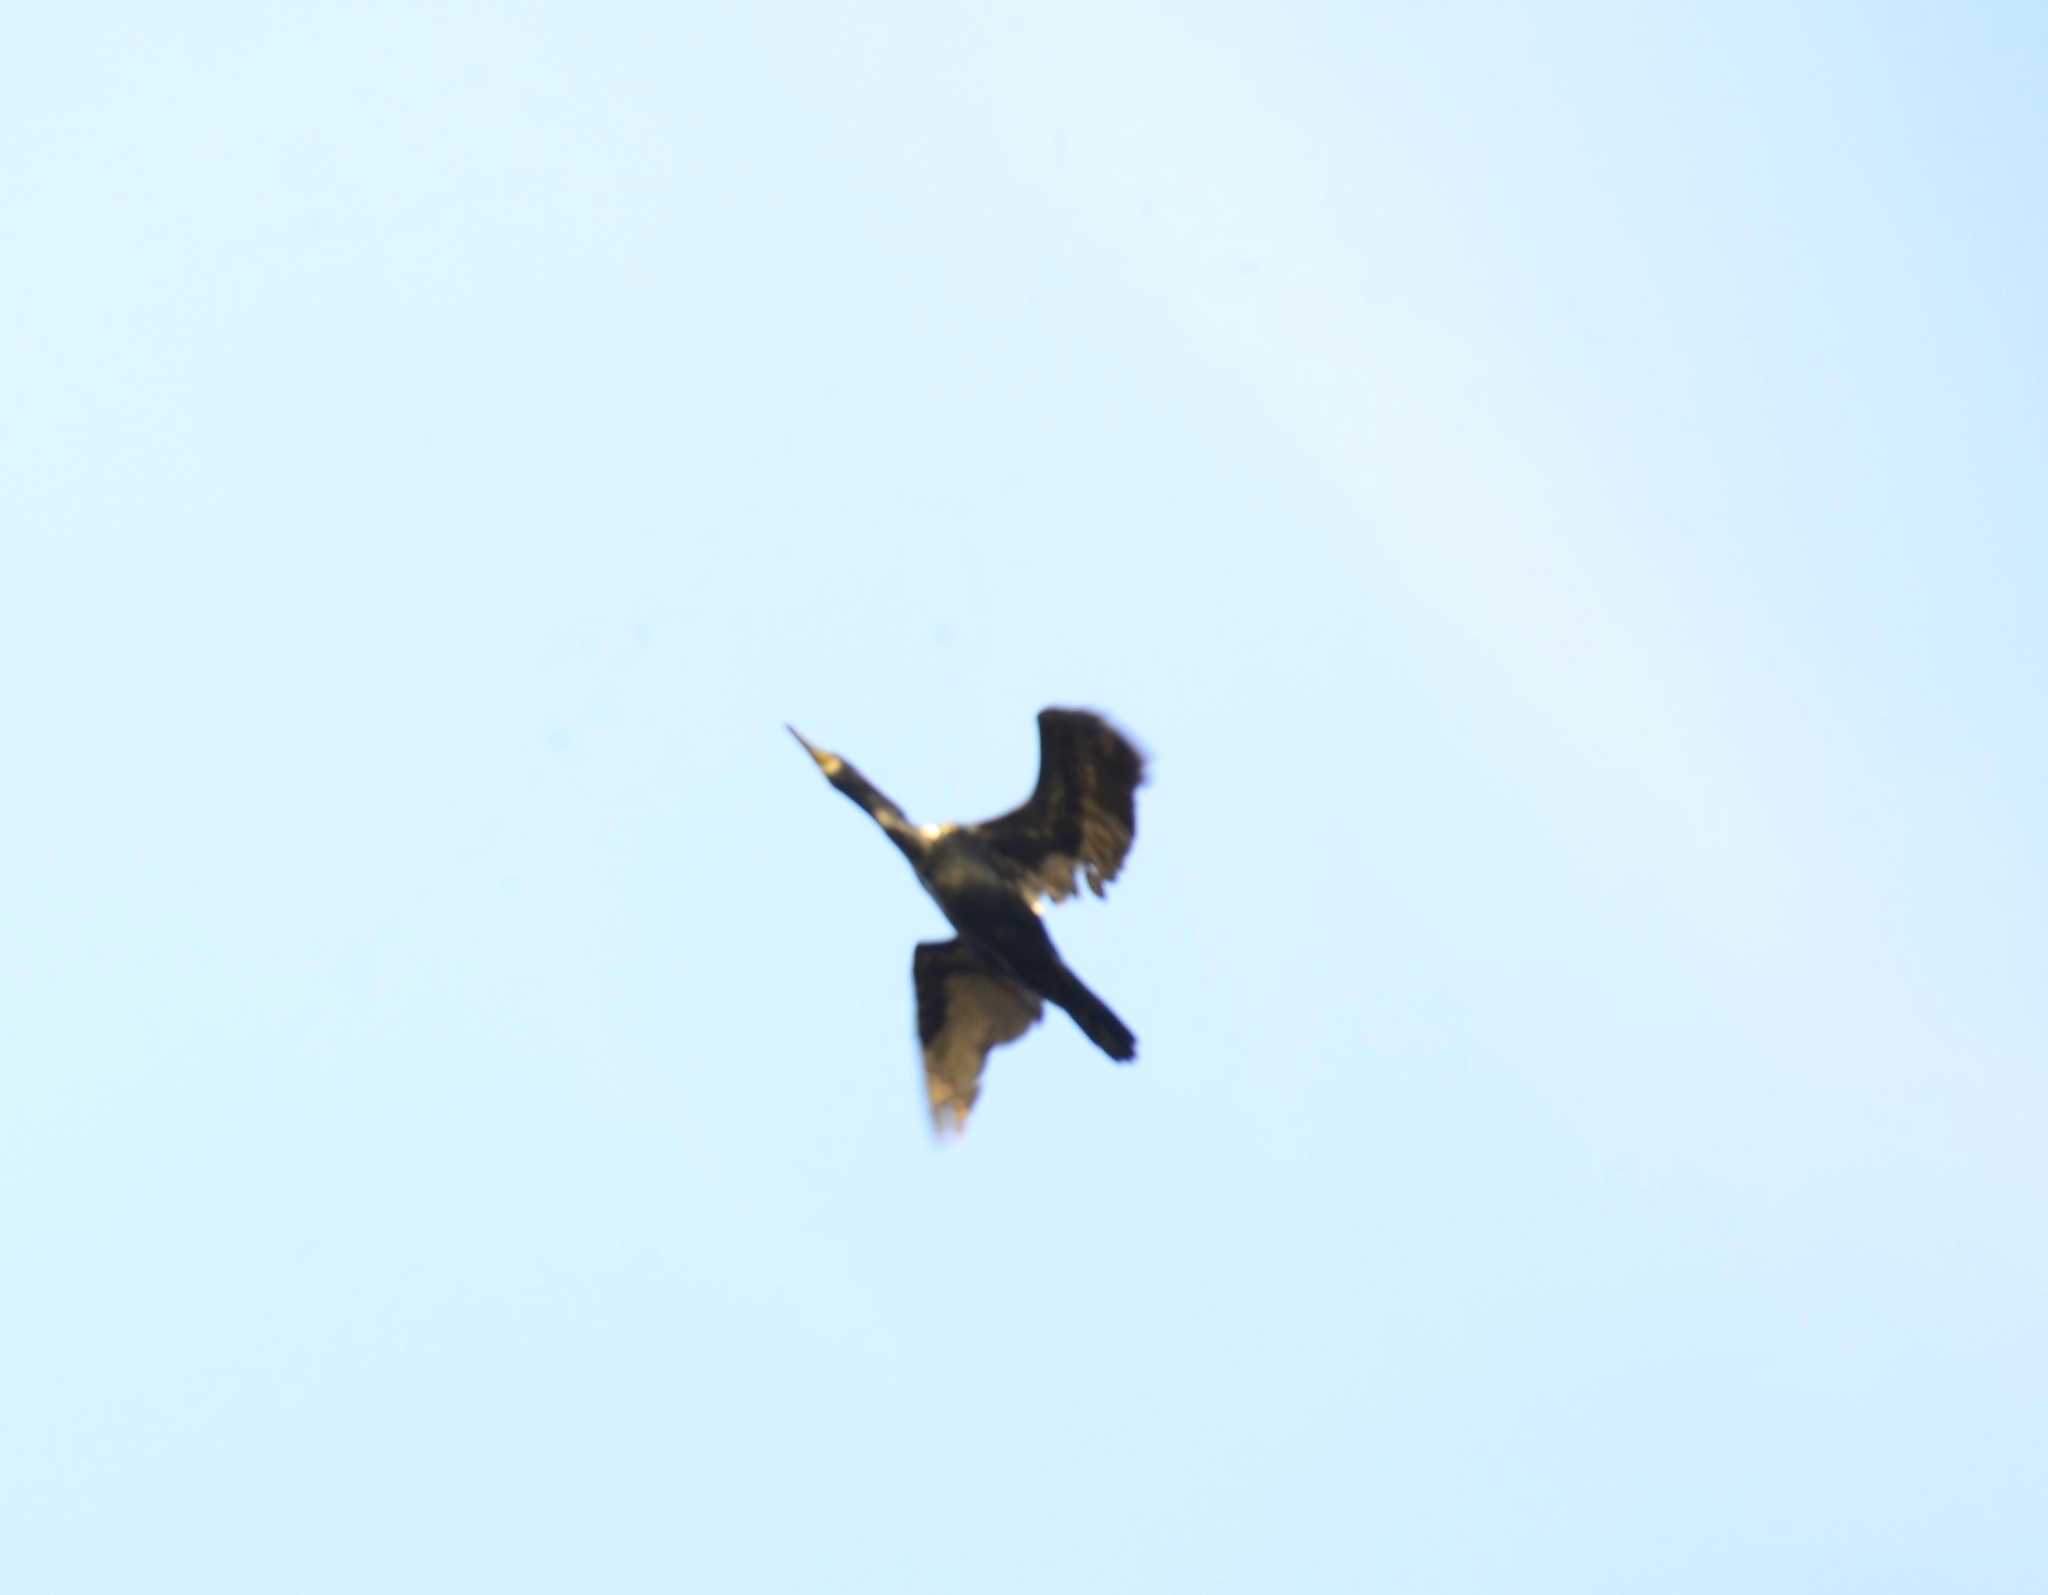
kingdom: Animalia
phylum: Chordata
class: Aves
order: Suliformes
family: Phalacrocoracidae
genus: Phalacrocorax
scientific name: Phalacrocorax fuscicollis
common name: Indian cormorant
